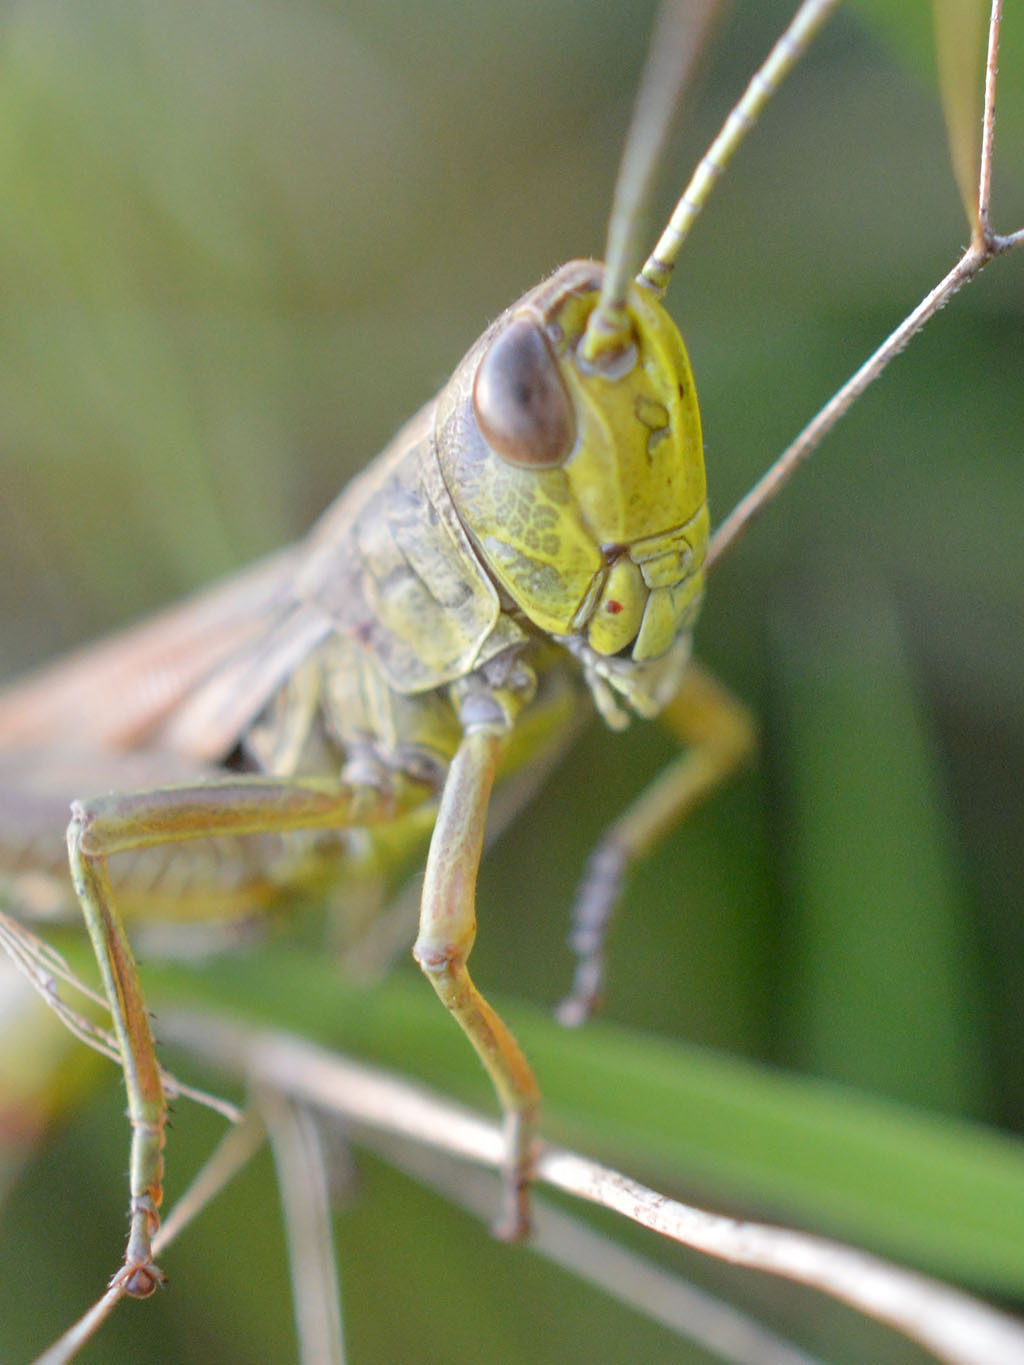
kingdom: Animalia
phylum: Arthropoda
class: Insecta
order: Orthoptera
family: Acrididae
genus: Pseudochorthippus
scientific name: Pseudochorthippus parallelus
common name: Meadow grasshopper
